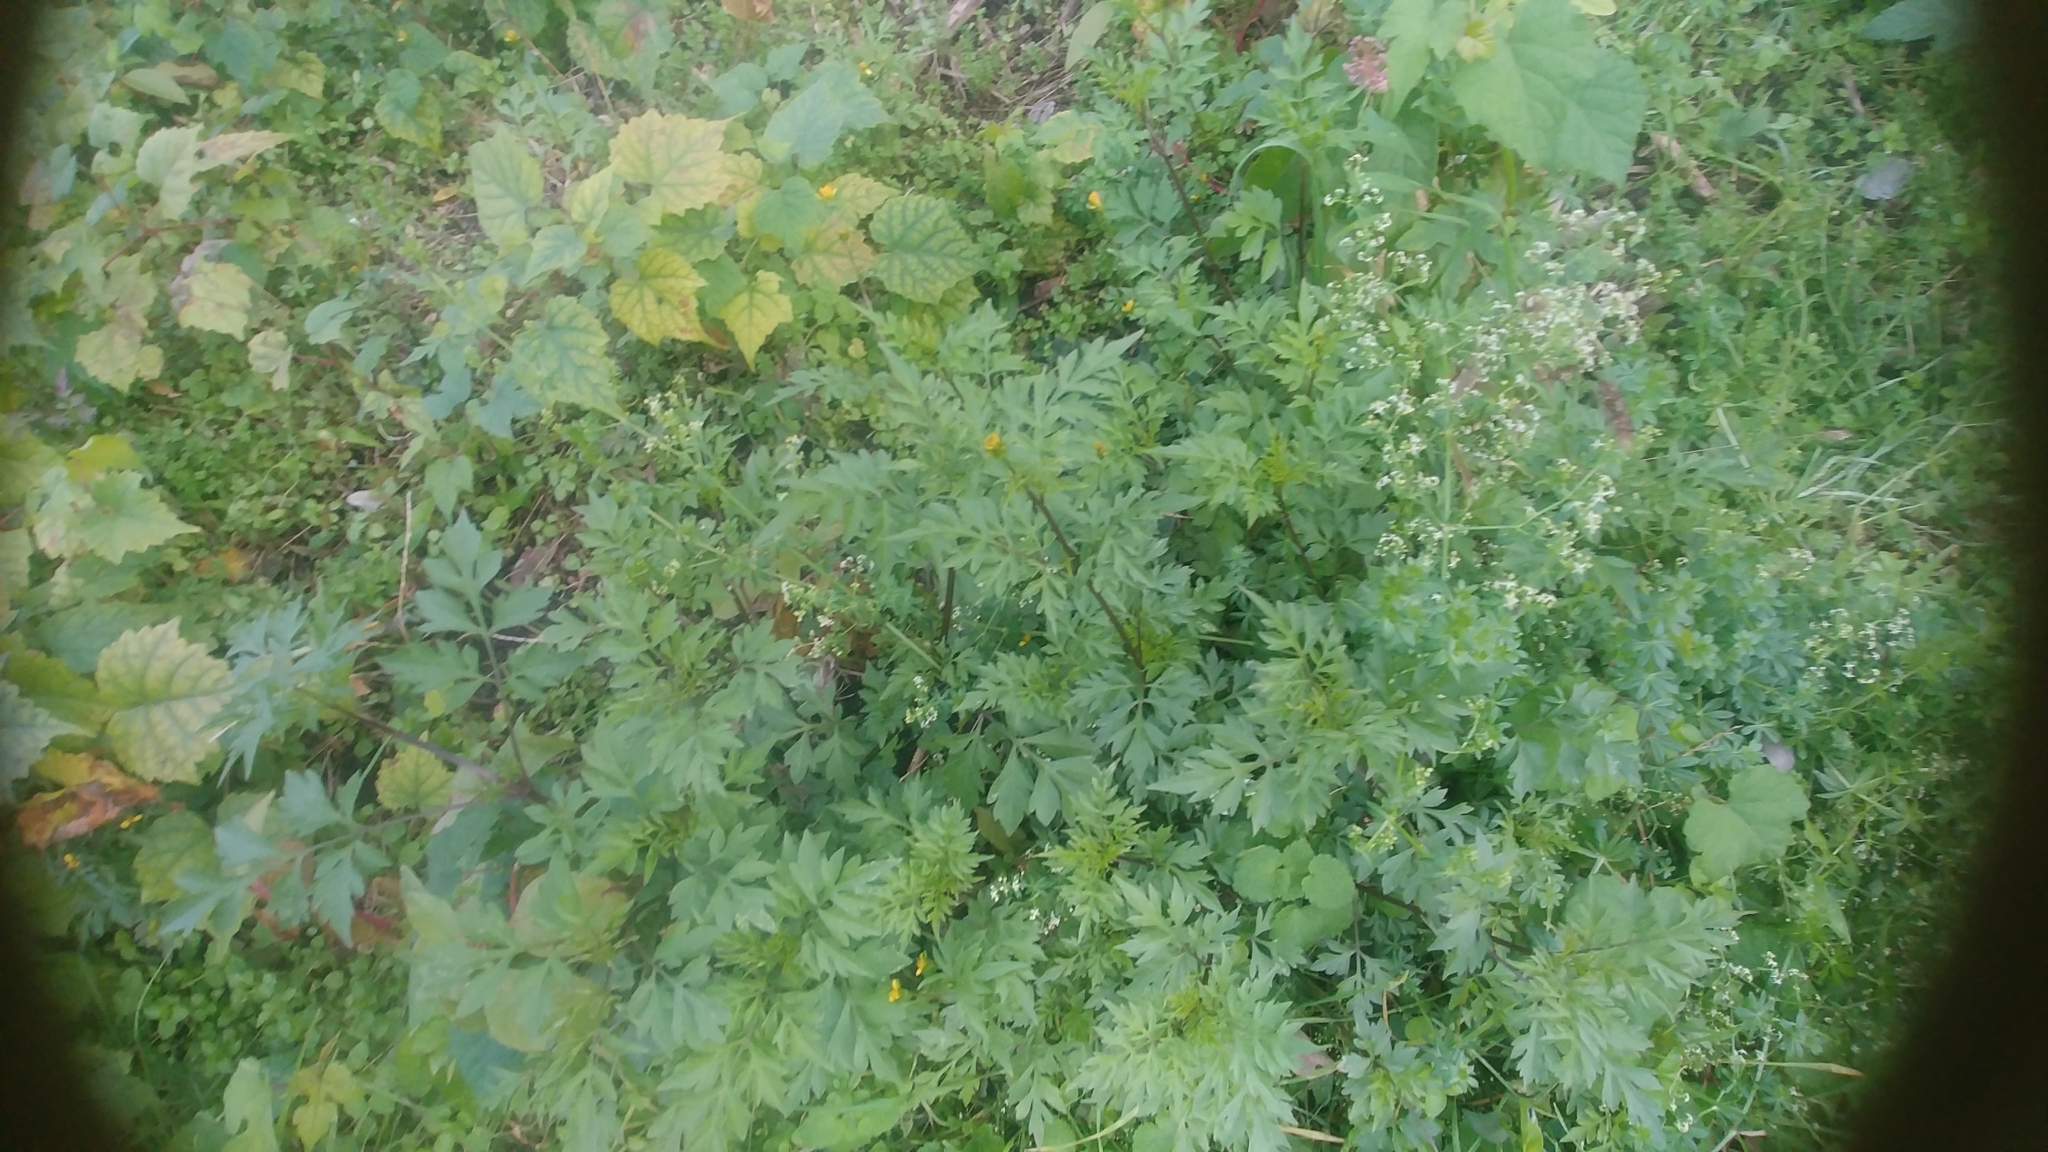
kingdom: Plantae
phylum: Tracheophyta
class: Magnoliopsida
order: Asterales
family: Asteraceae
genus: Bidens
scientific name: Bidens bipinnata
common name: Spanish-needles
